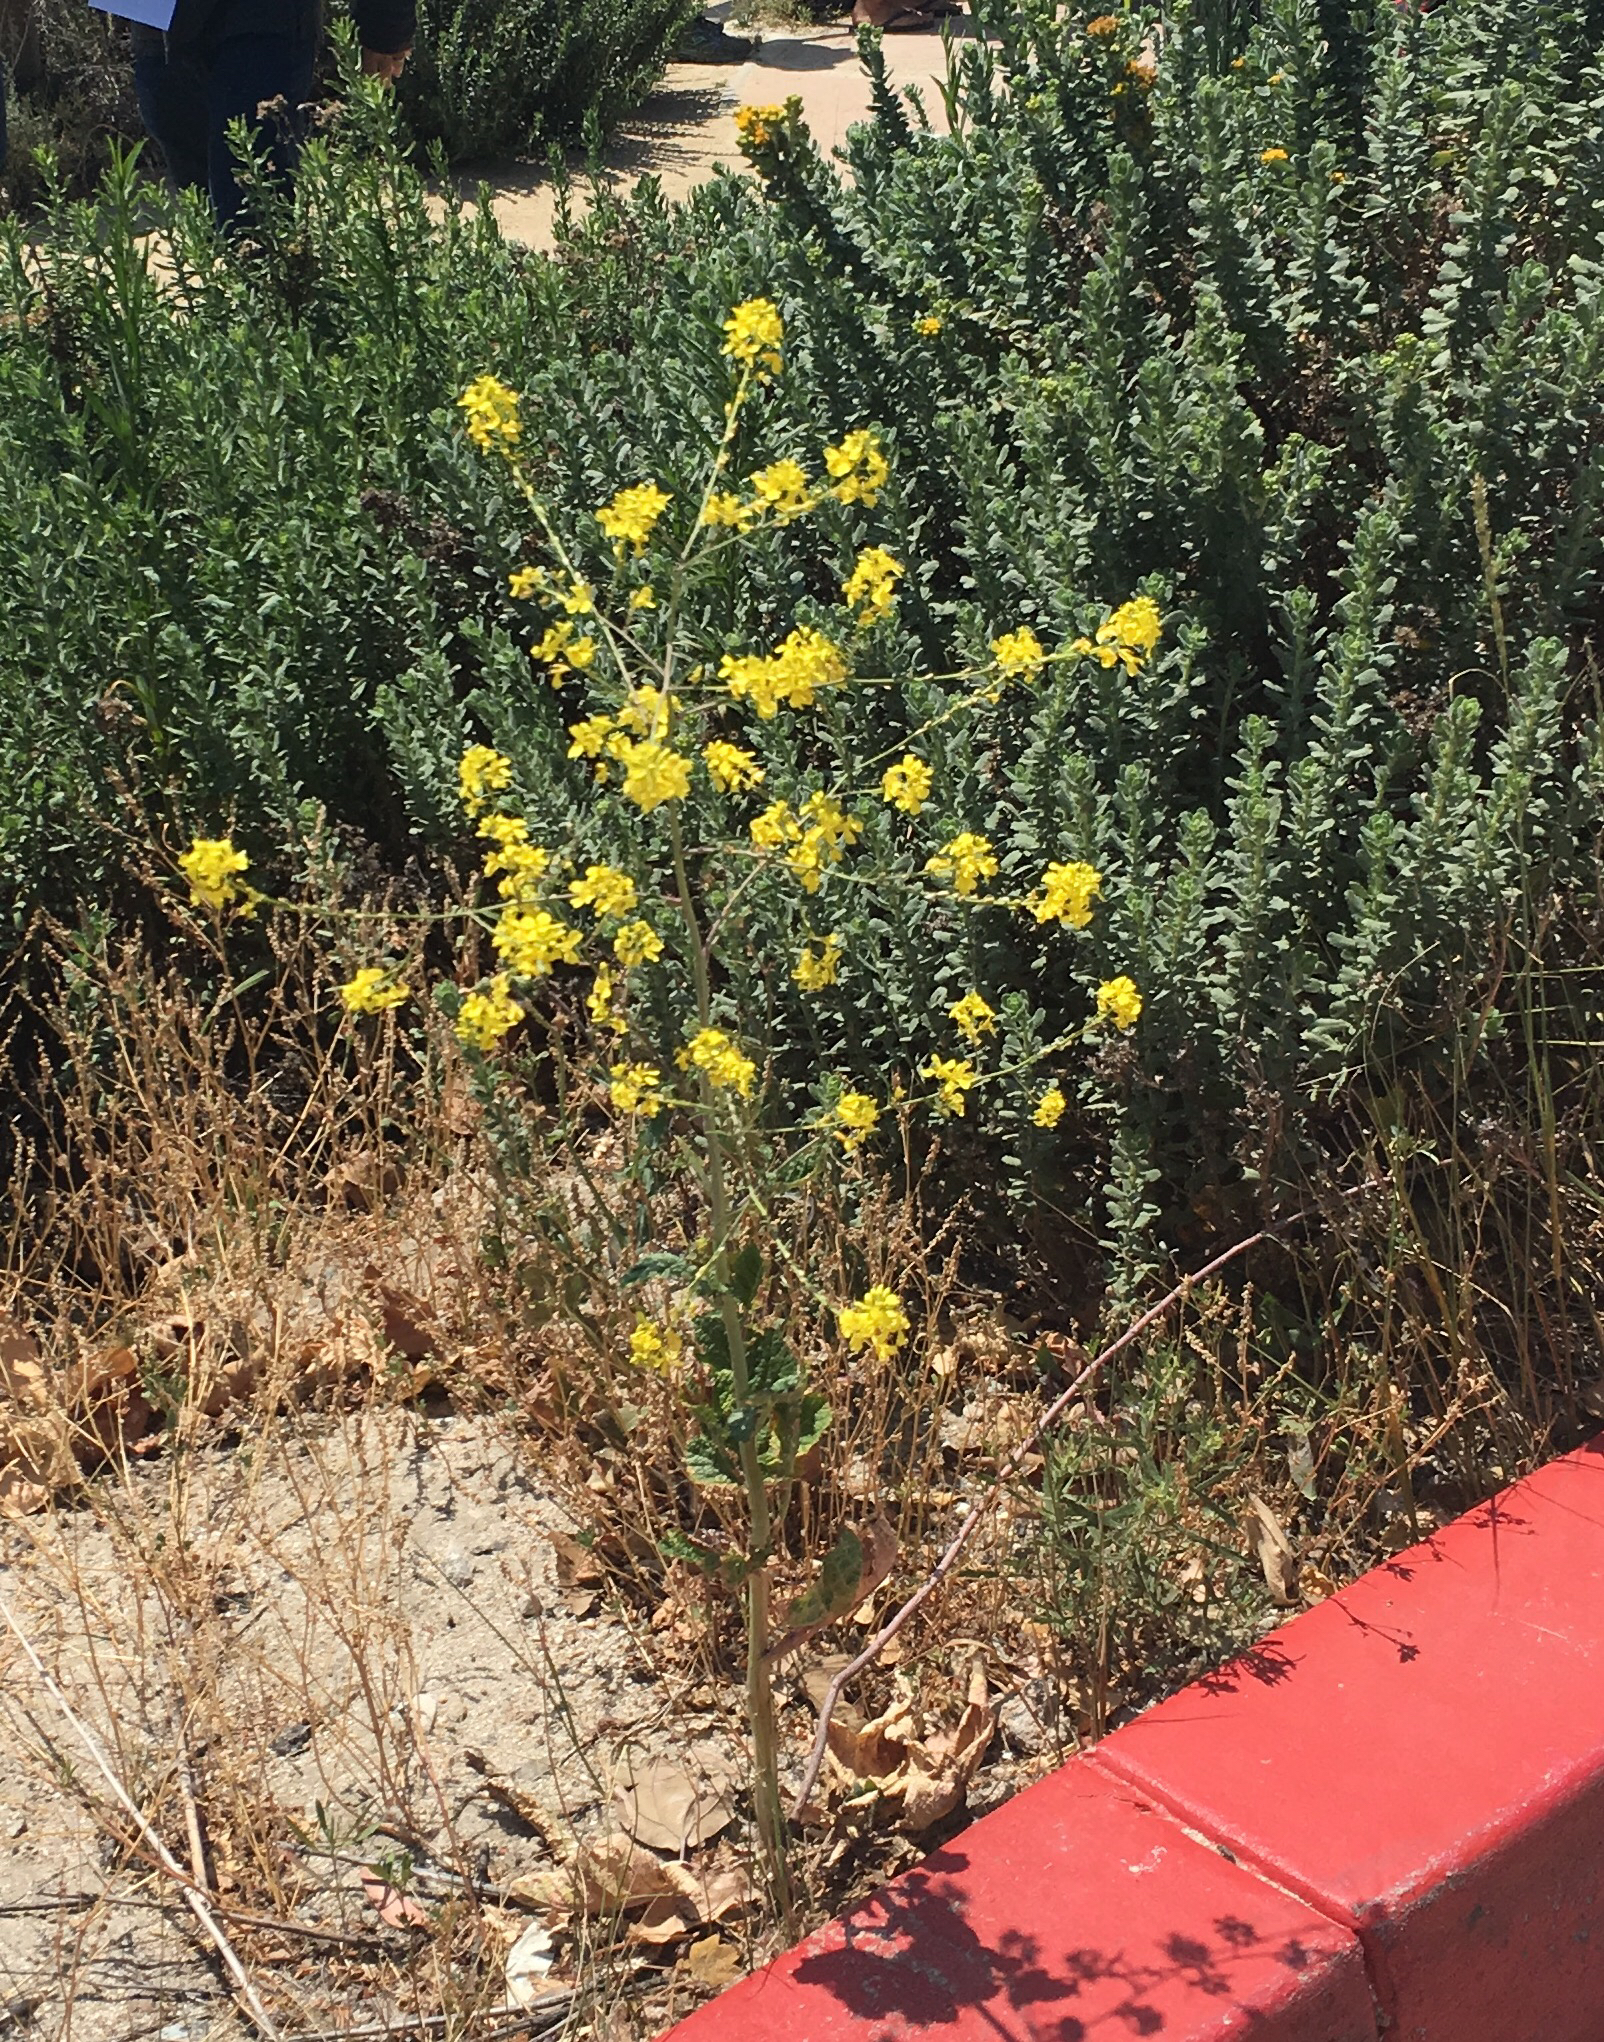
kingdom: Plantae
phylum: Tracheophyta
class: Magnoliopsida
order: Brassicales
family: Brassicaceae
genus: Brassica
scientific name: Brassica nigra
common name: Black mustard
